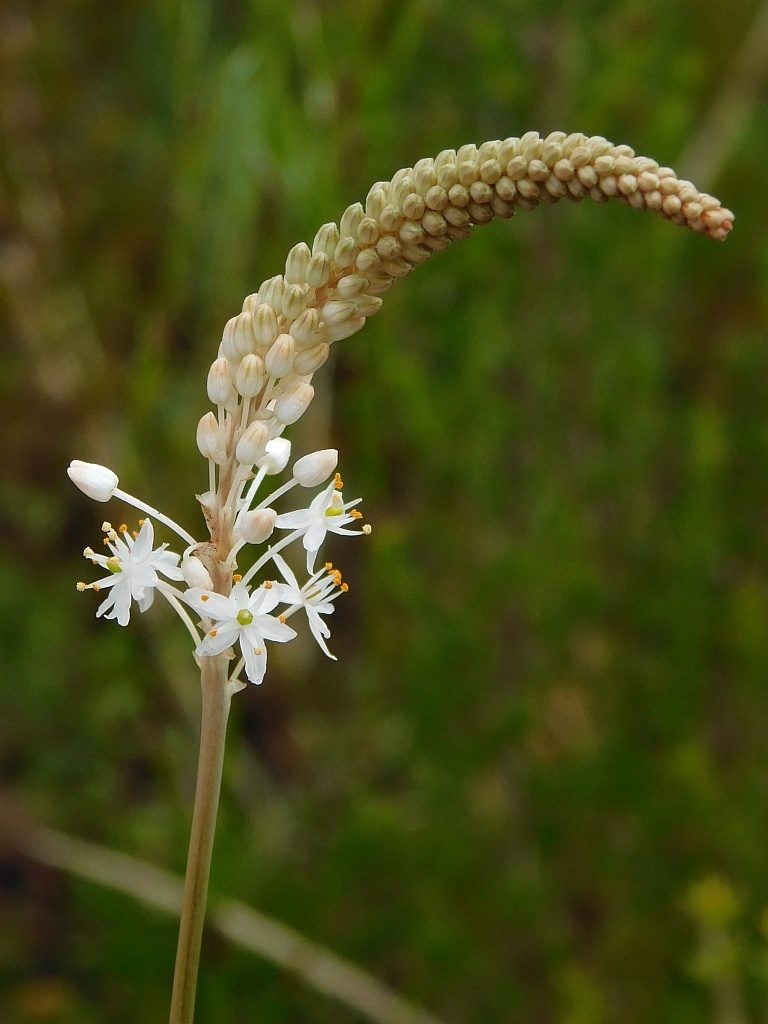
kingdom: Plantae
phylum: Tracheophyta
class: Liliopsida
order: Asparagales
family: Asphodelaceae
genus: Bulbinella
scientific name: Bulbinella trinervis
